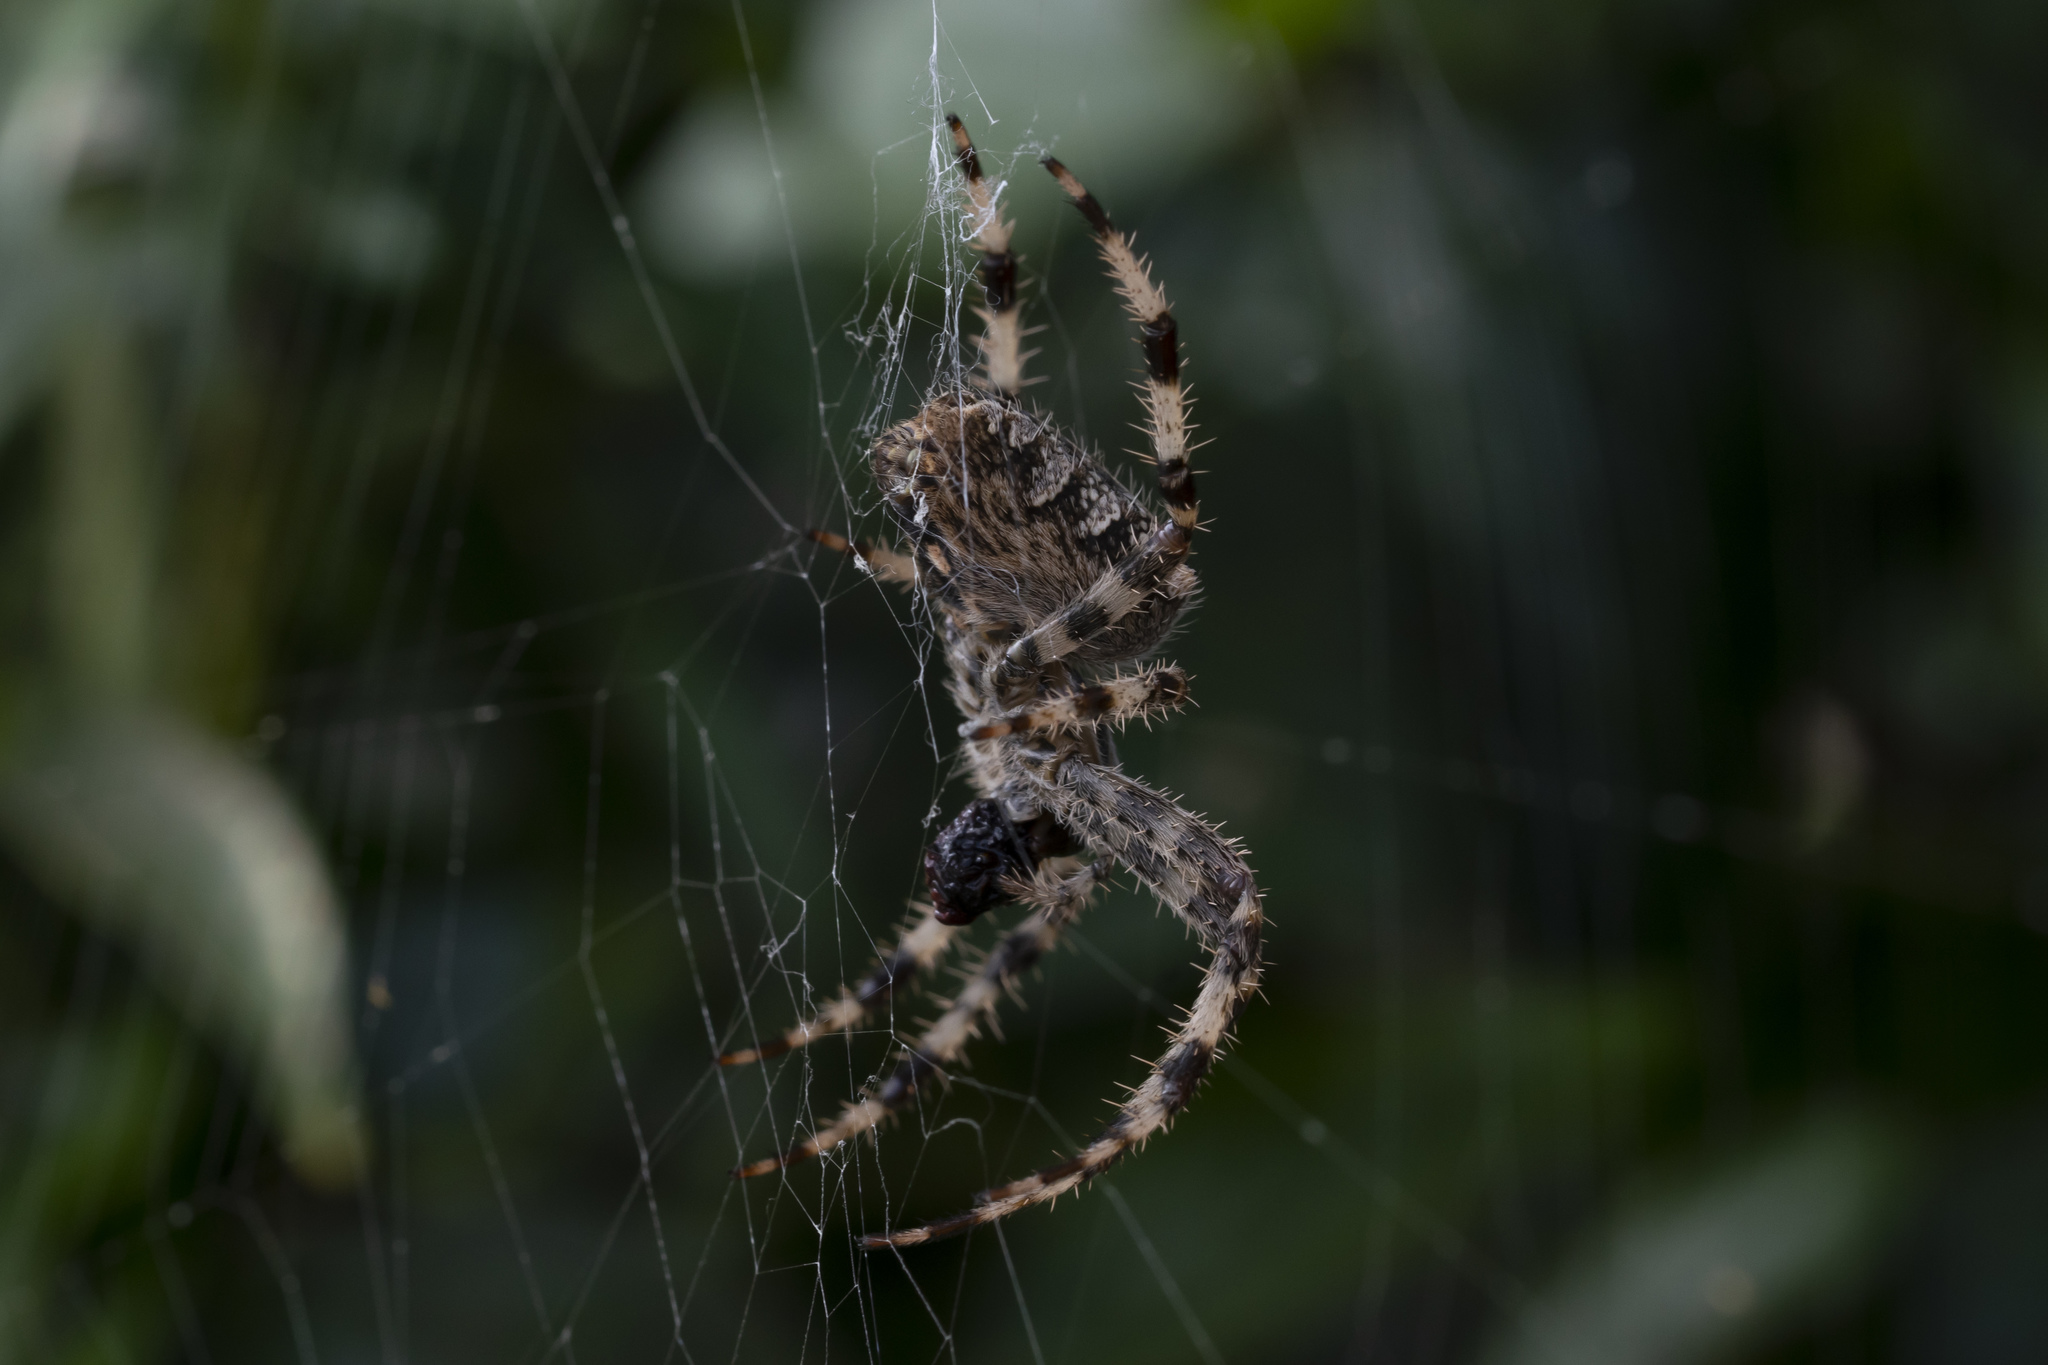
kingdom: Animalia
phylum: Arthropoda
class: Arachnida
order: Araneae
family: Araneidae
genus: Araneus
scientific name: Araneus diadematus
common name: Cross orbweaver
